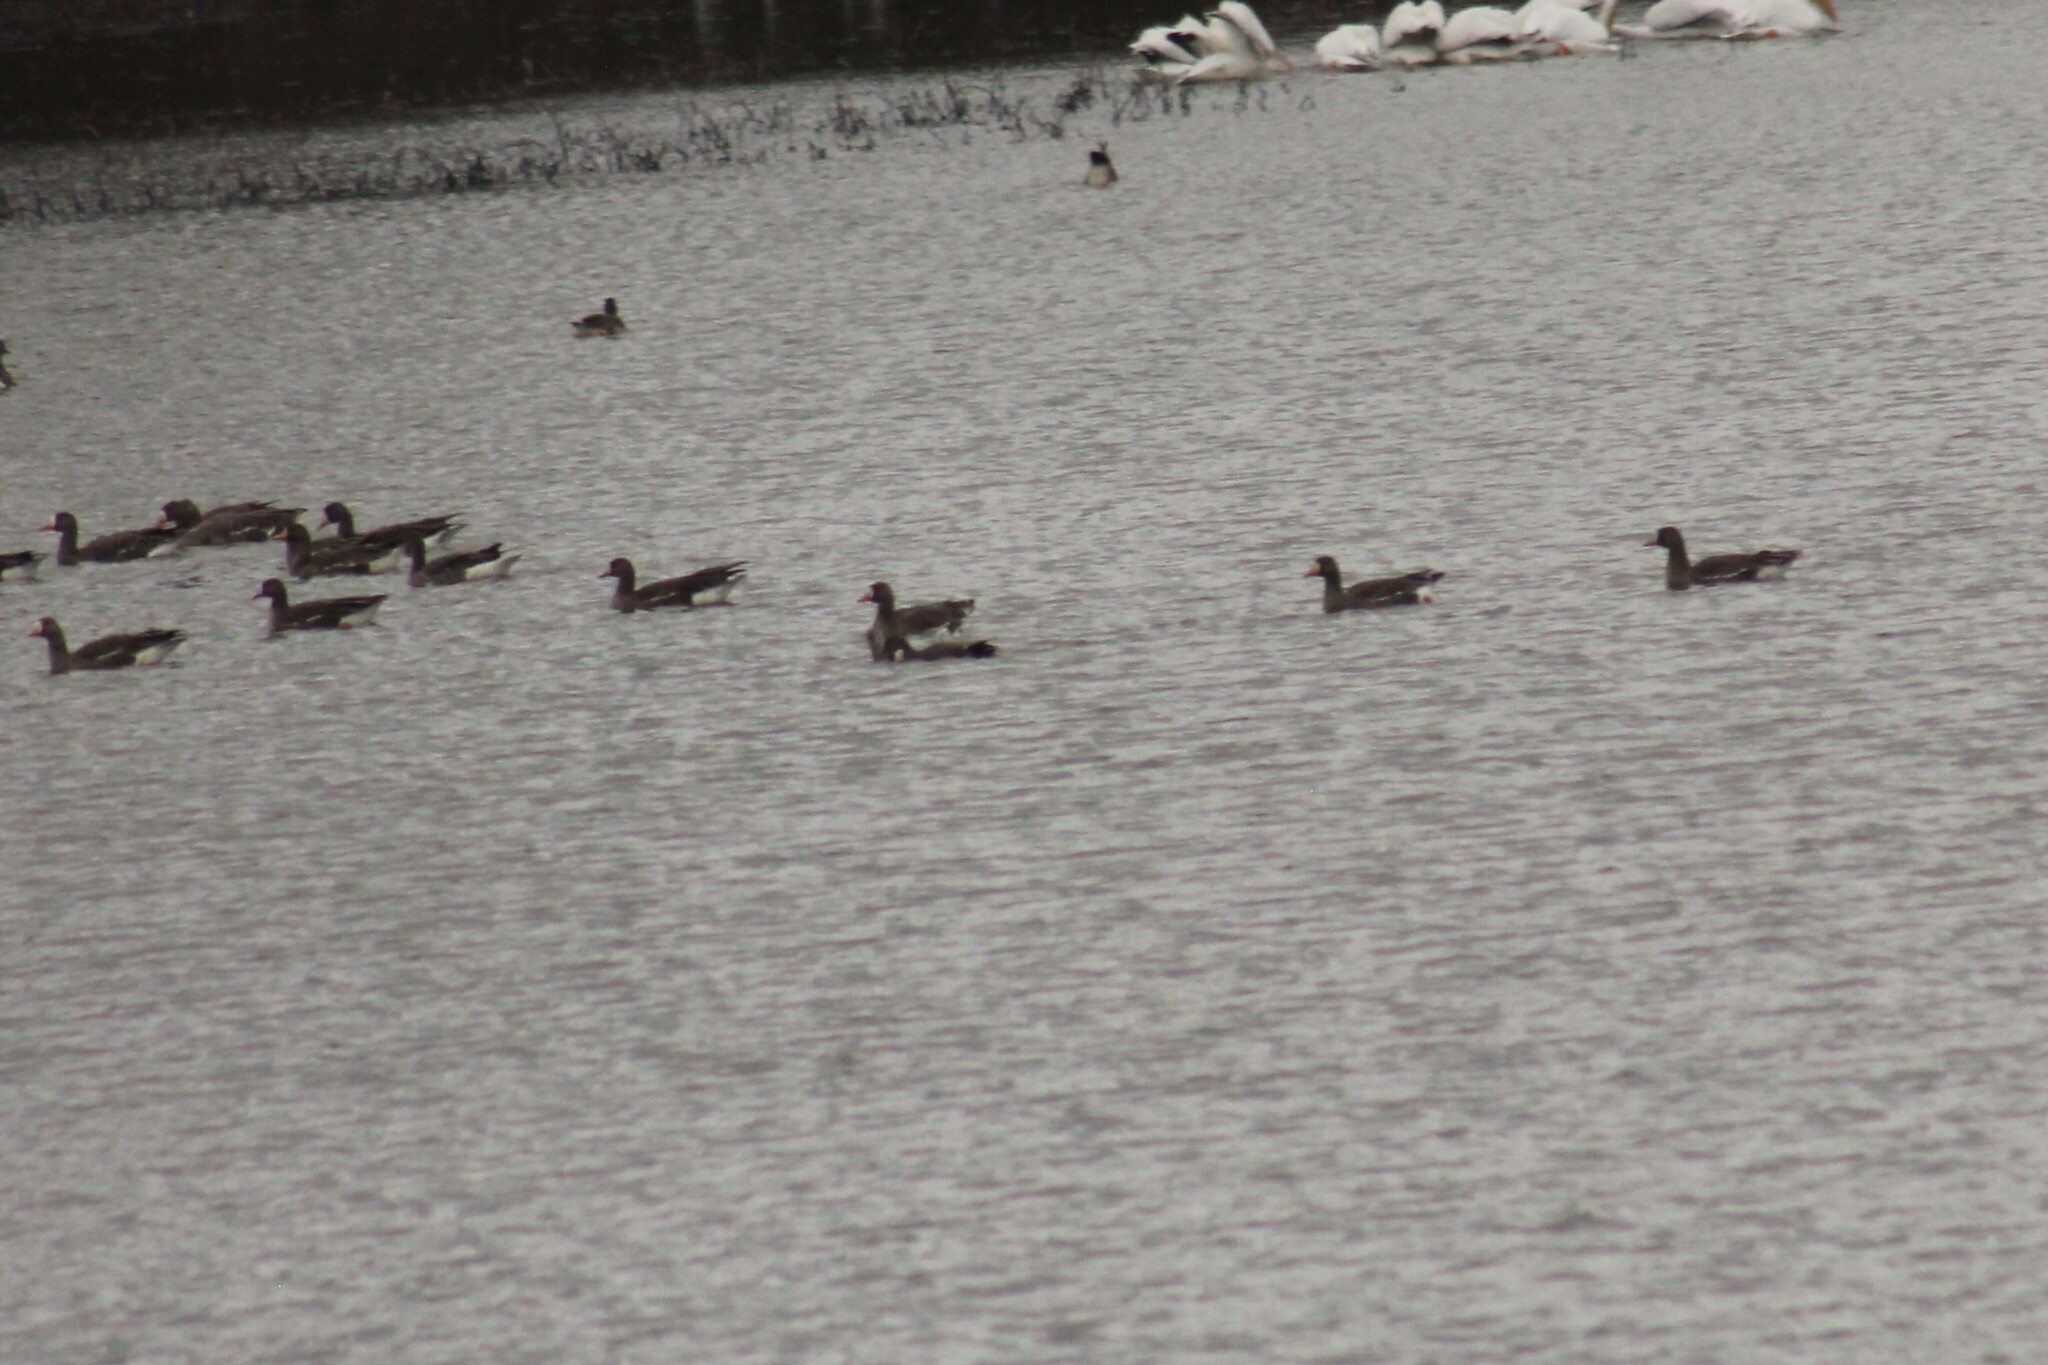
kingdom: Animalia
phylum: Chordata
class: Aves
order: Anseriformes
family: Anatidae
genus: Anser
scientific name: Anser albifrons
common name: Greater white-fronted goose
